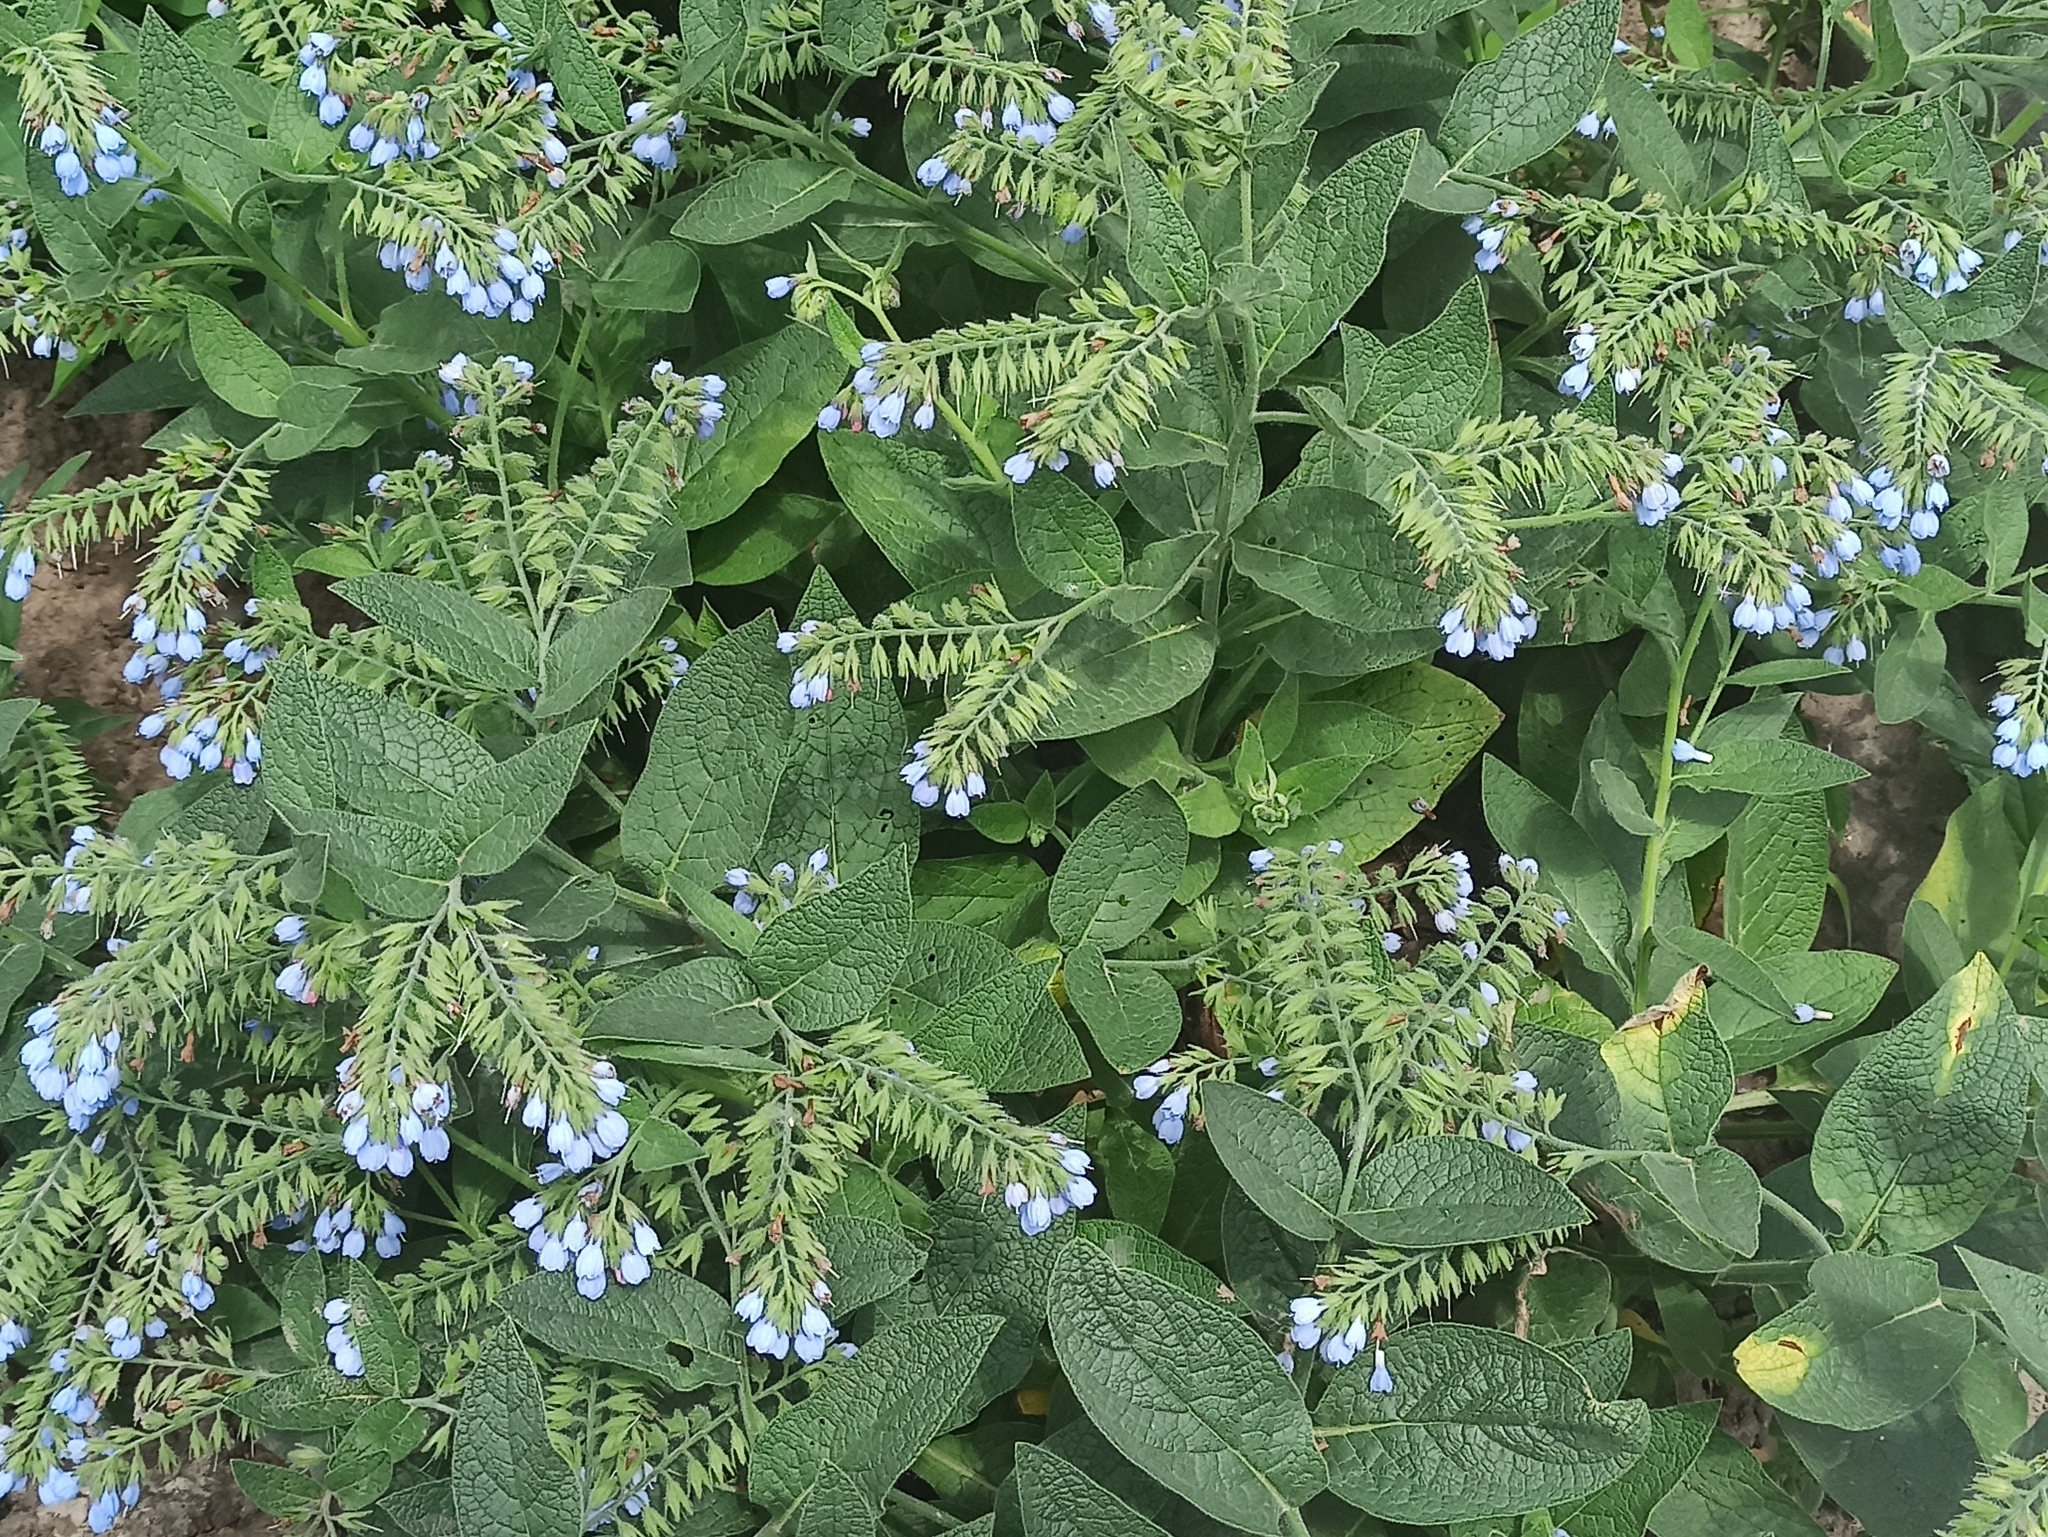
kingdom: Plantae
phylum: Tracheophyta
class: Magnoliopsida
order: Boraginales
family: Boraginaceae
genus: Symphytum
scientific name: Symphytum caucasicum
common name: Caucasian comfrey
